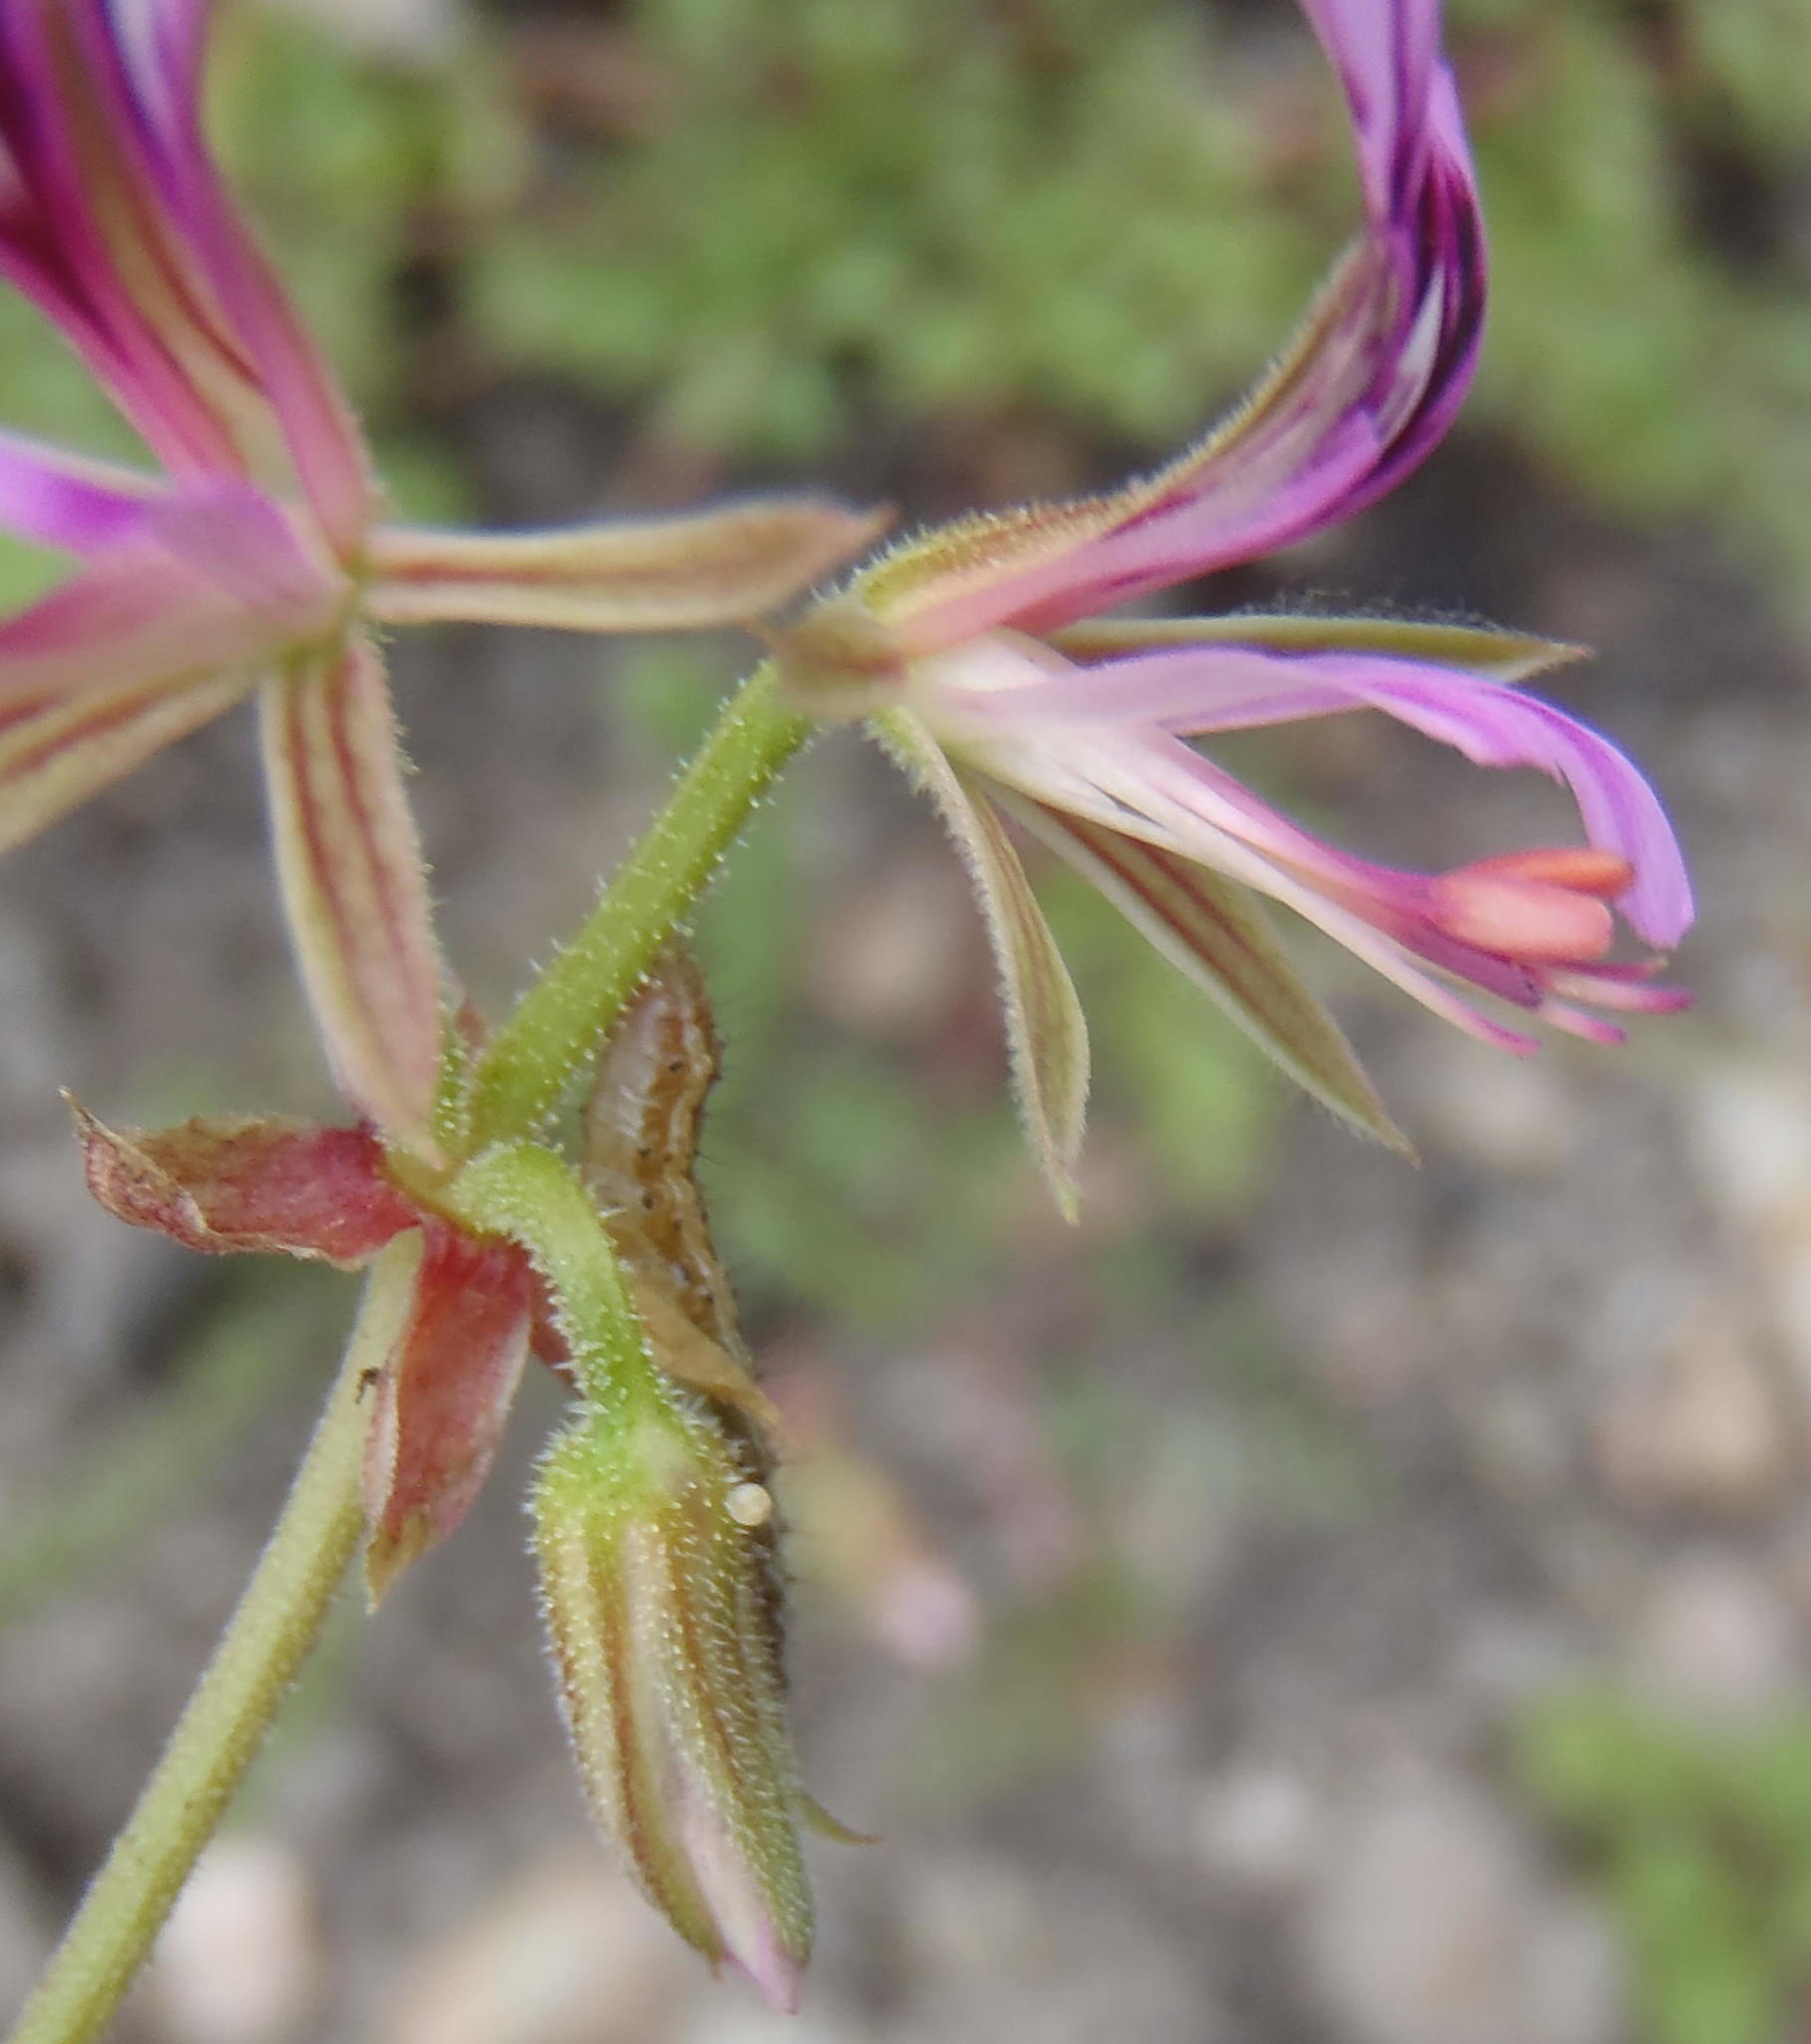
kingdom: Plantae
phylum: Tracheophyta
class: Magnoliopsida
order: Geraniales
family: Geraniaceae
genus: Pelargonium
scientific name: Pelargonium multicaule
